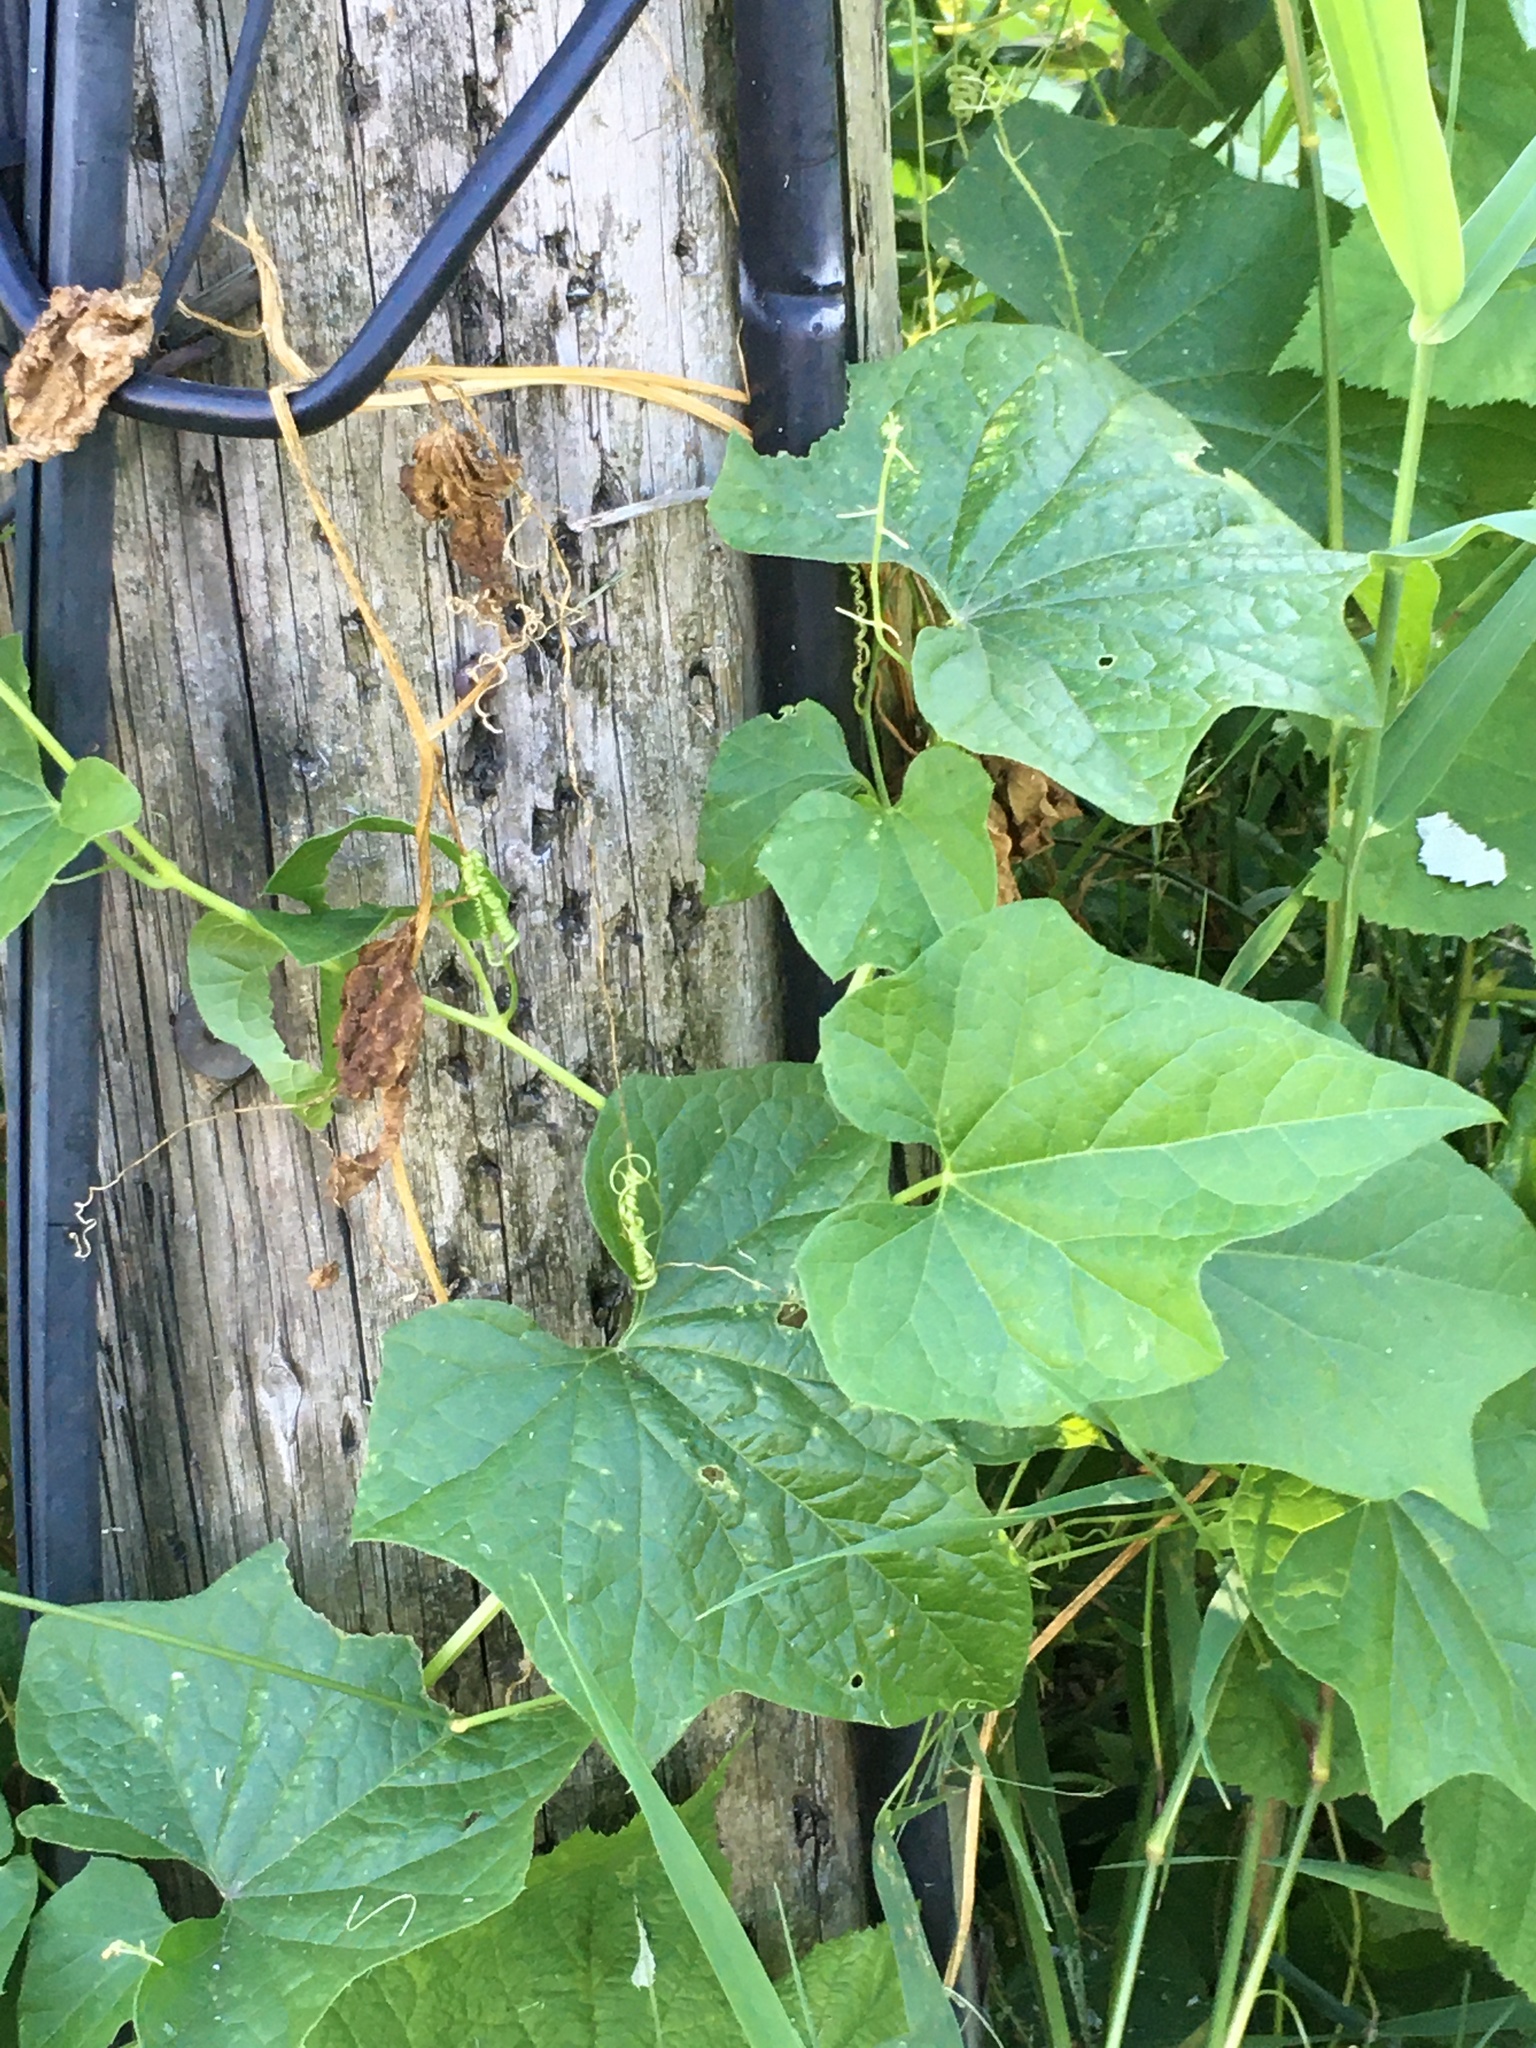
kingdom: Plantae
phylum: Tracheophyta
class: Magnoliopsida
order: Cucurbitales
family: Cucurbitaceae
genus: Marah
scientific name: Marah oregana
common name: Coastal manroot
